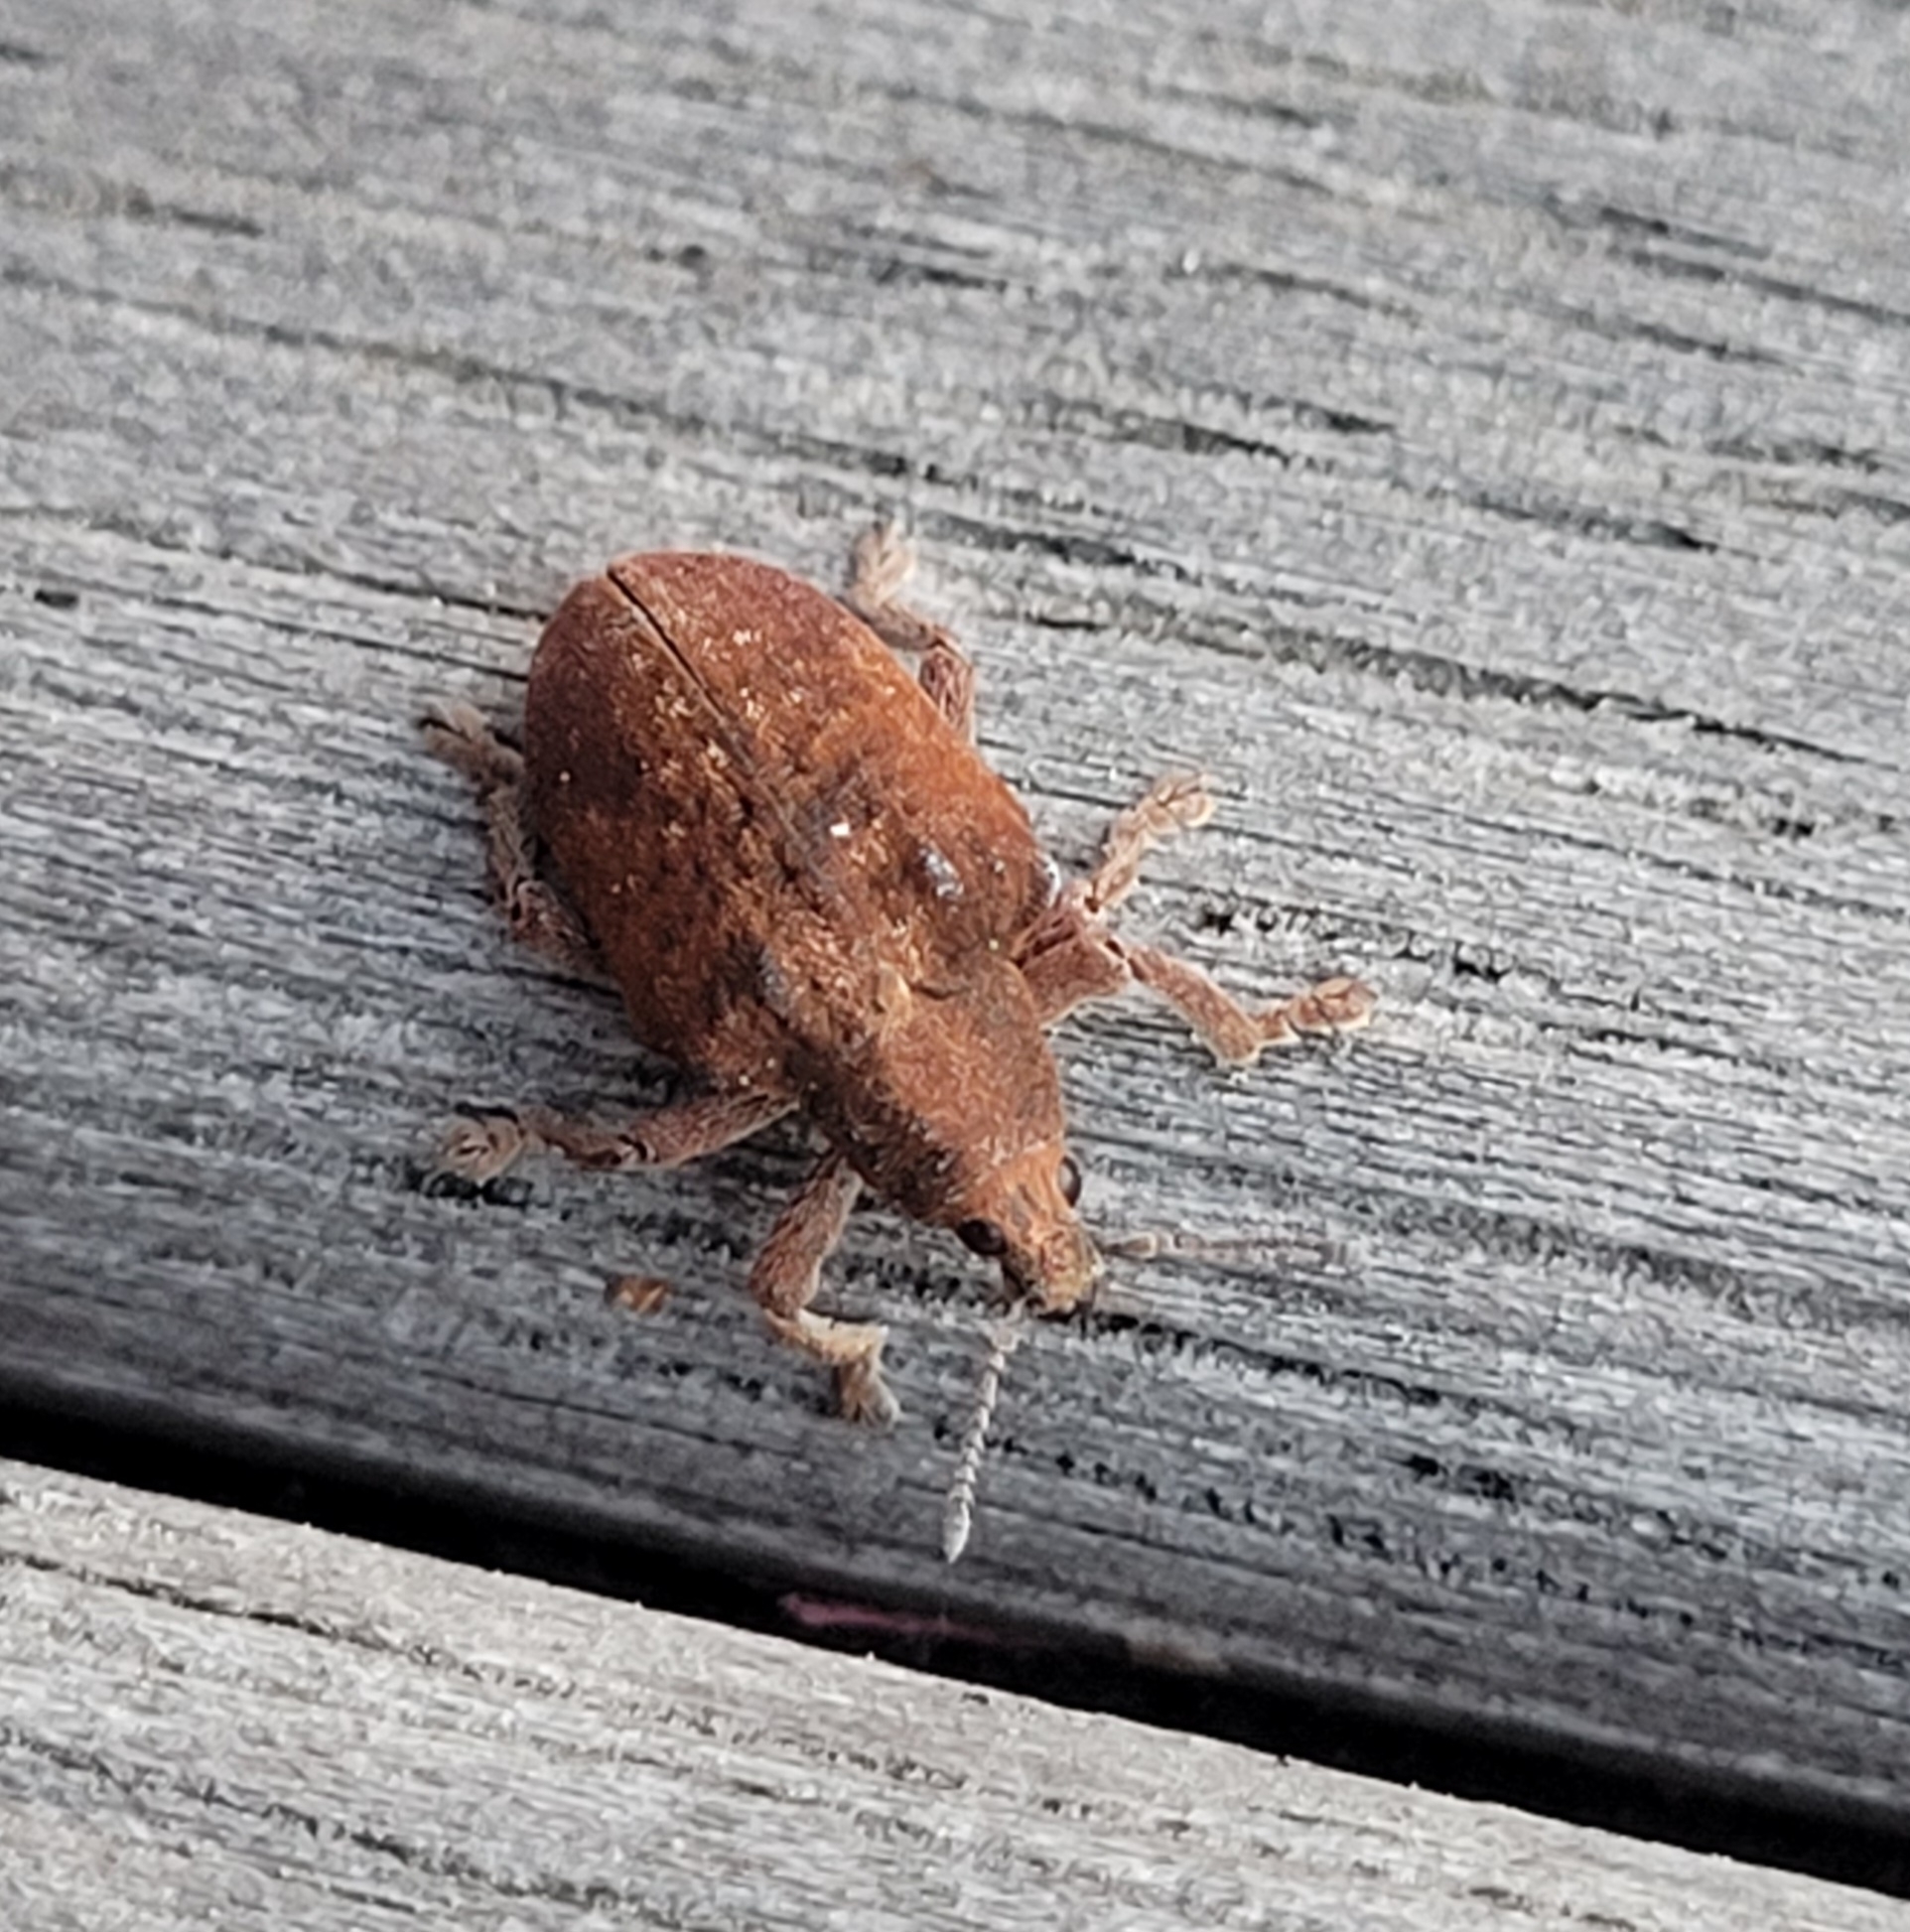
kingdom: Animalia
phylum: Arthropoda
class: Insecta
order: Coleoptera
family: Curculionidae
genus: Gonipterus
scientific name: Gonipterus platensis
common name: Eucalyptus snout beetle
